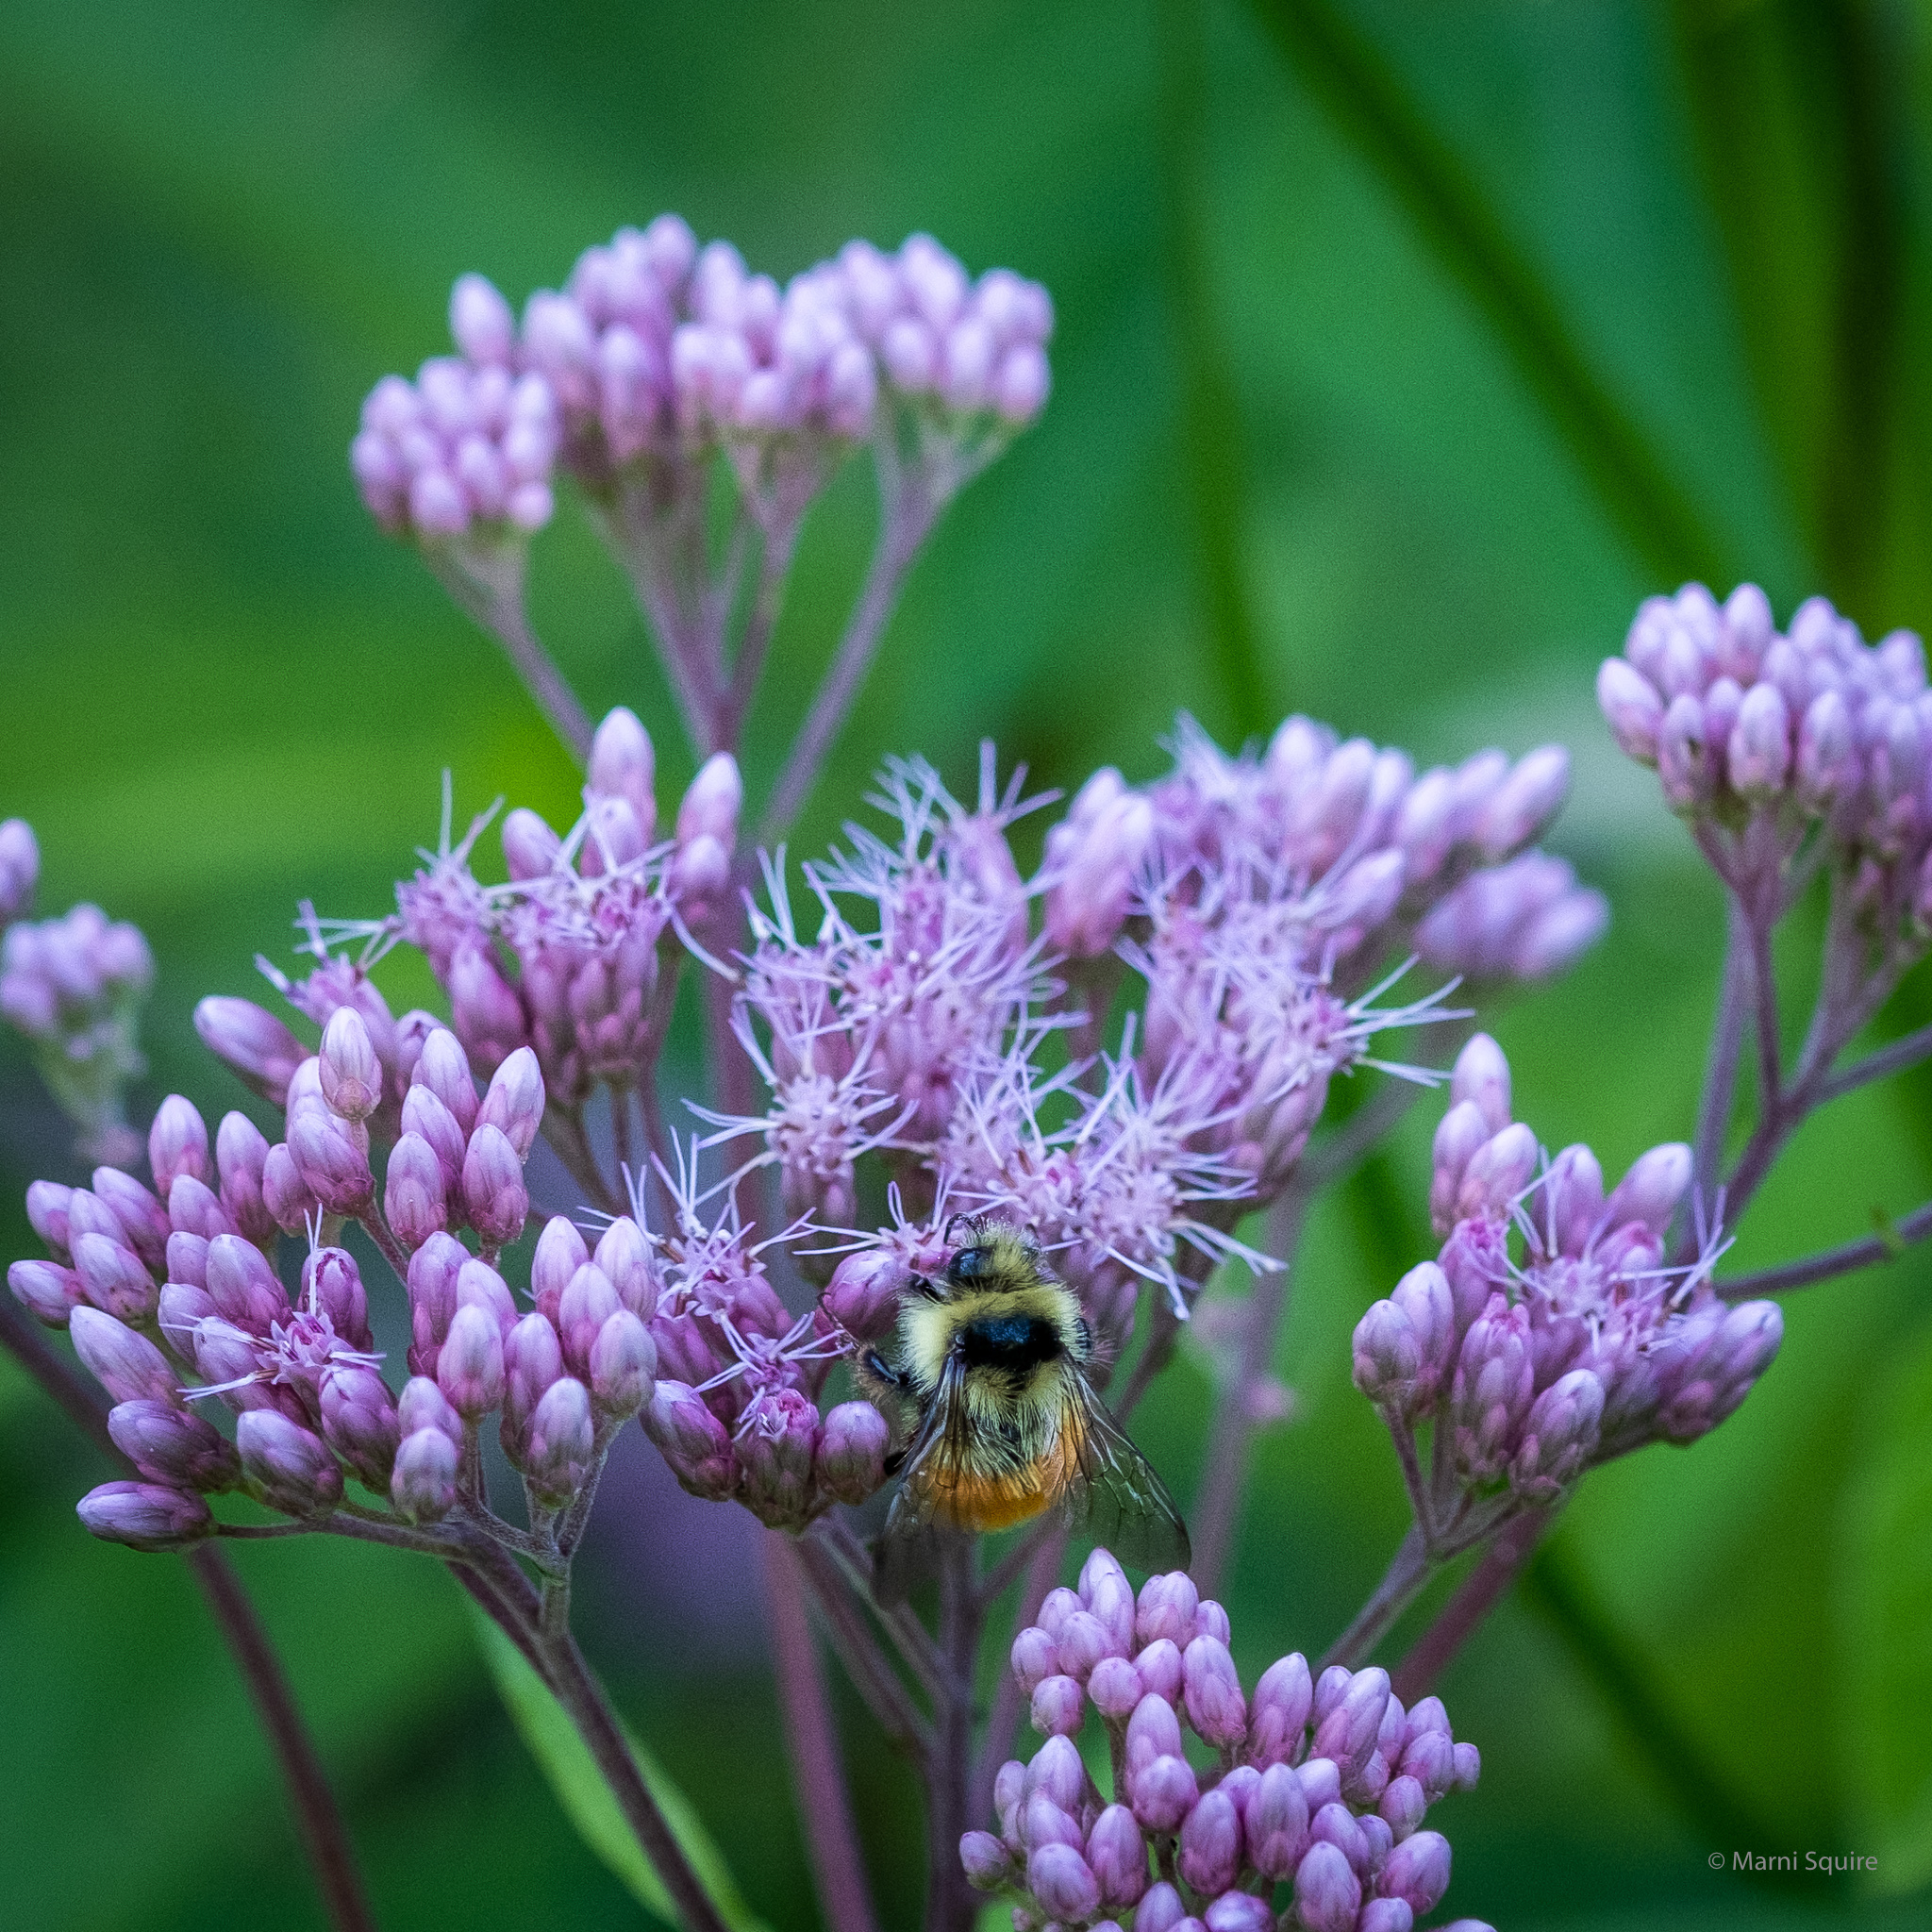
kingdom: Animalia
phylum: Arthropoda
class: Insecta
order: Hymenoptera
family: Apidae
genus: Bombus
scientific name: Bombus ternarius
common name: Tri-colored bumble bee
